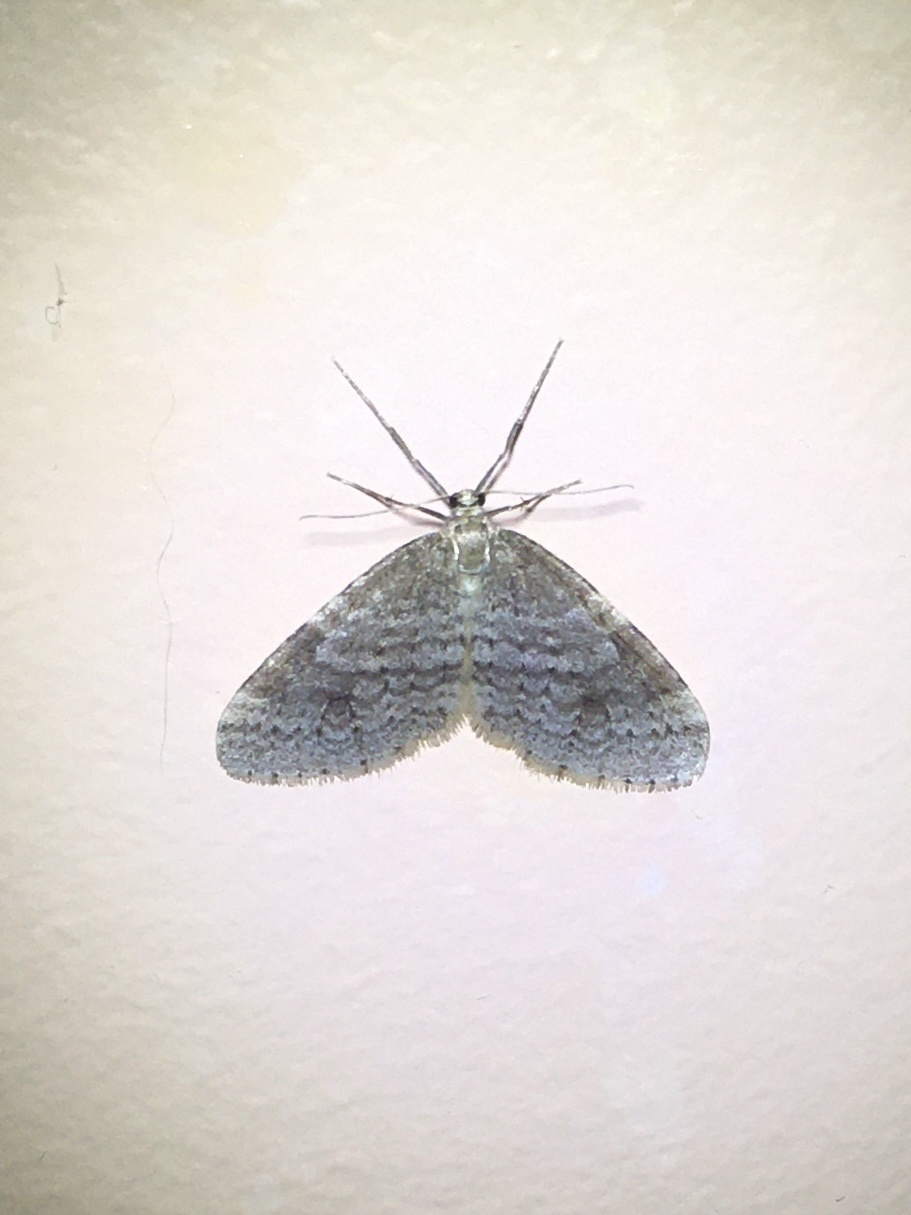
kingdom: Animalia
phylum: Arthropoda
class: Insecta
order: Lepidoptera
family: Geometridae
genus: Operophtera
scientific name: Operophtera bruceata
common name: Bruce spanworm
